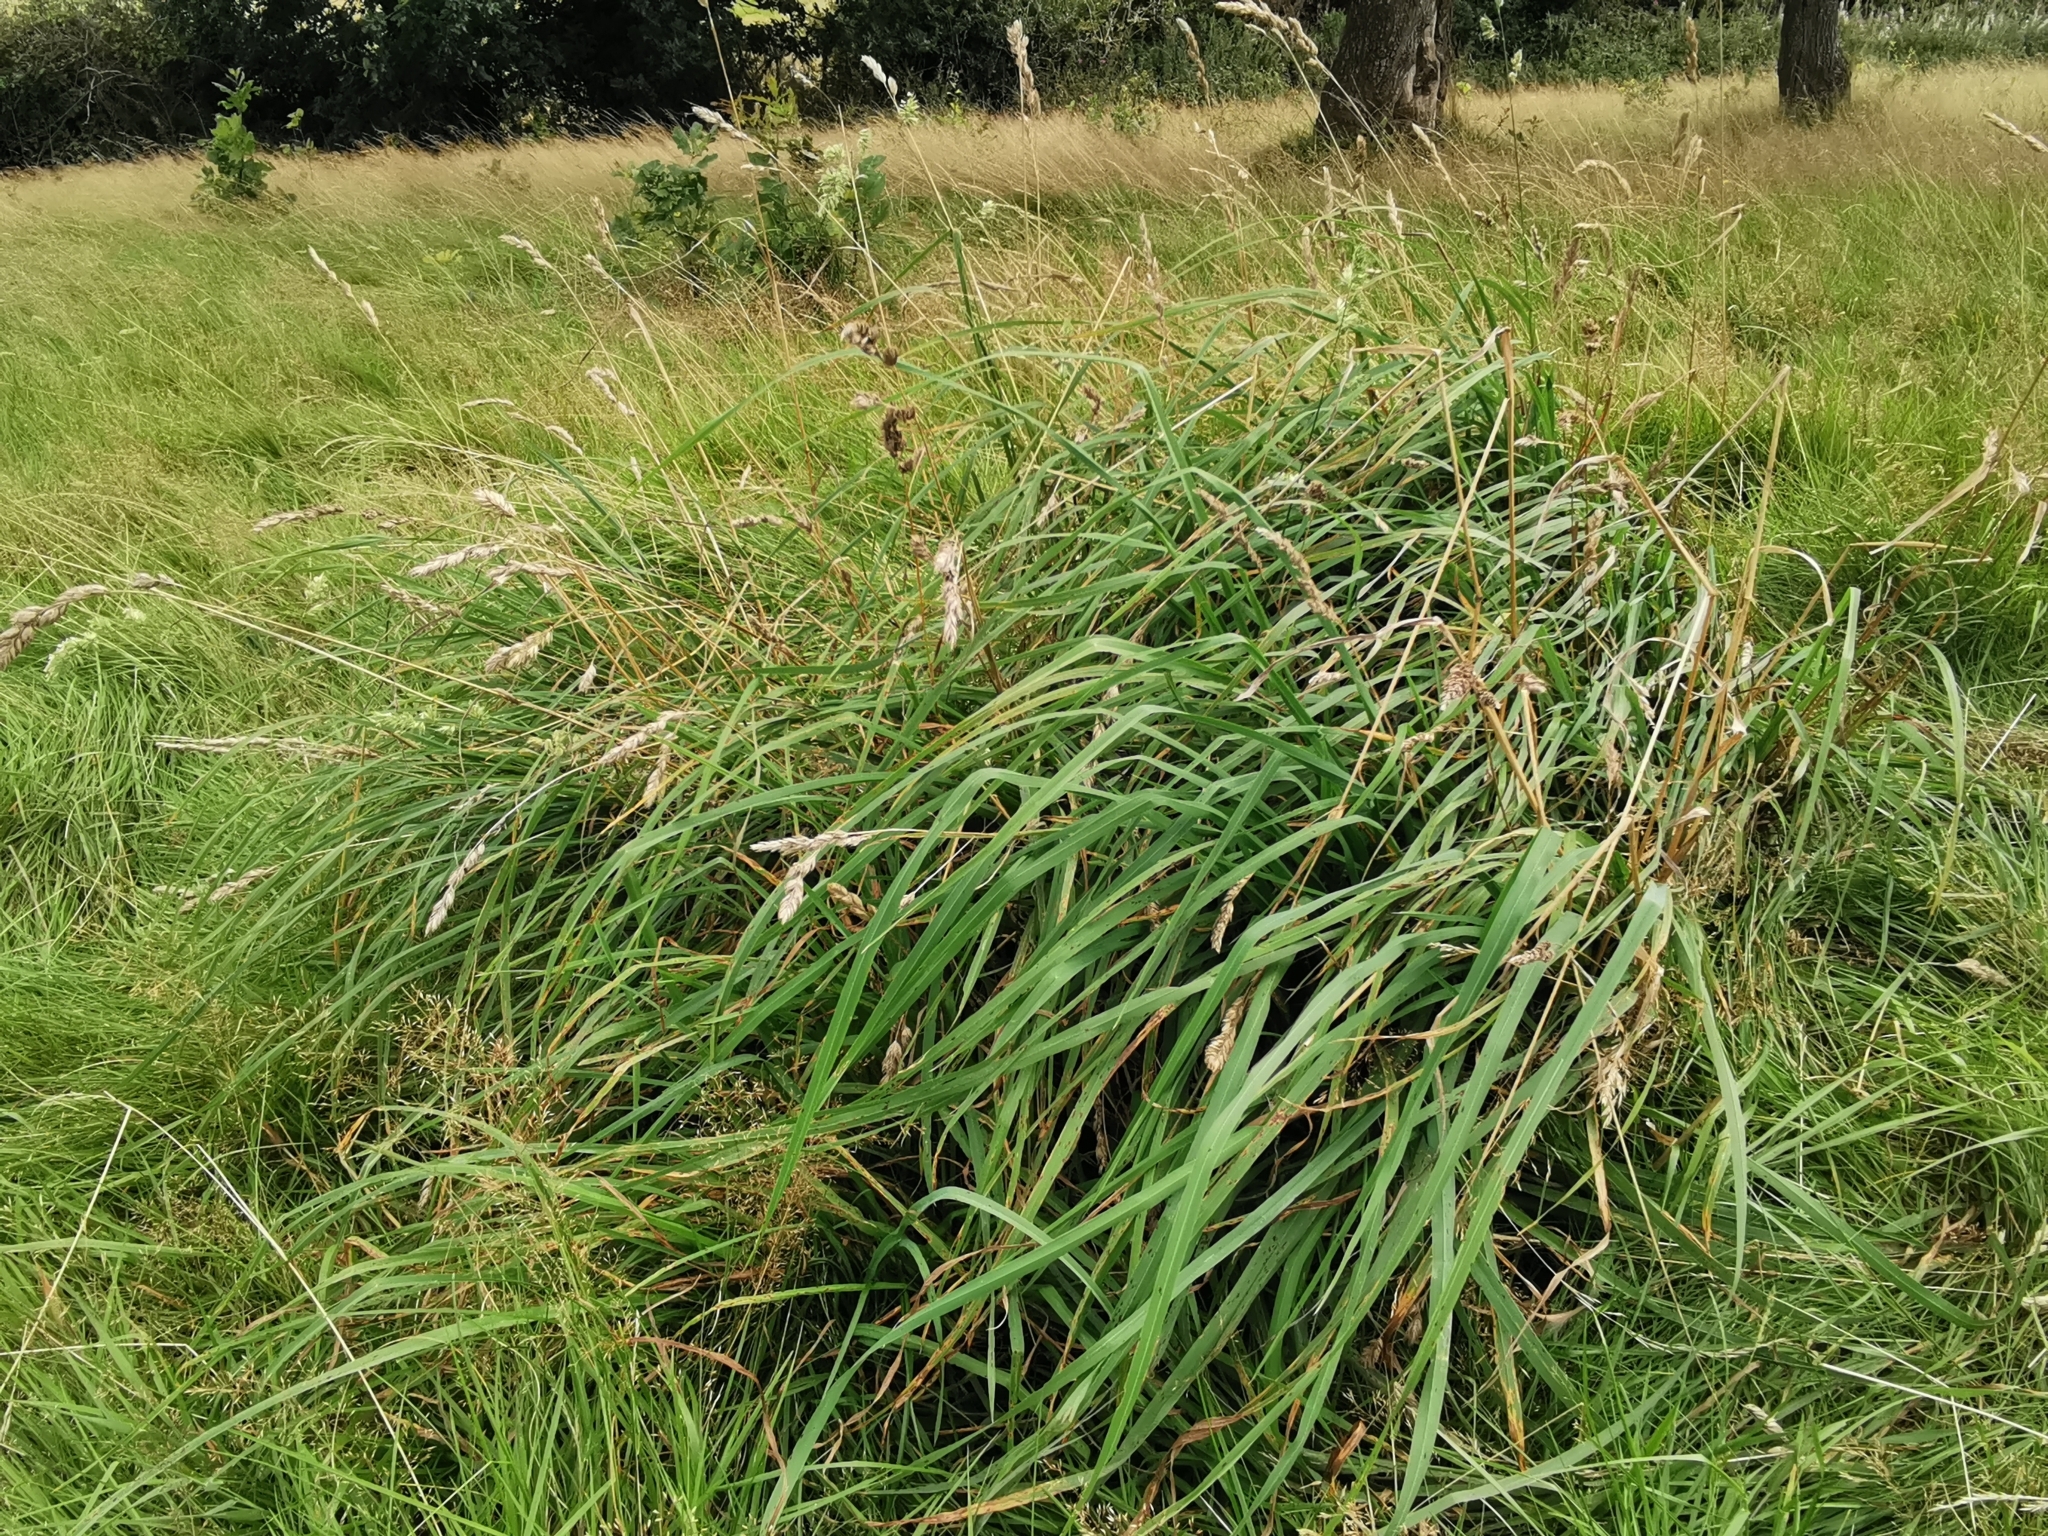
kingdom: Plantae
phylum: Tracheophyta
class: Liliopsida
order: Poales
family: Poaceae
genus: Dactylis
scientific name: Dactylis glomerata
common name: Orchardgrass
